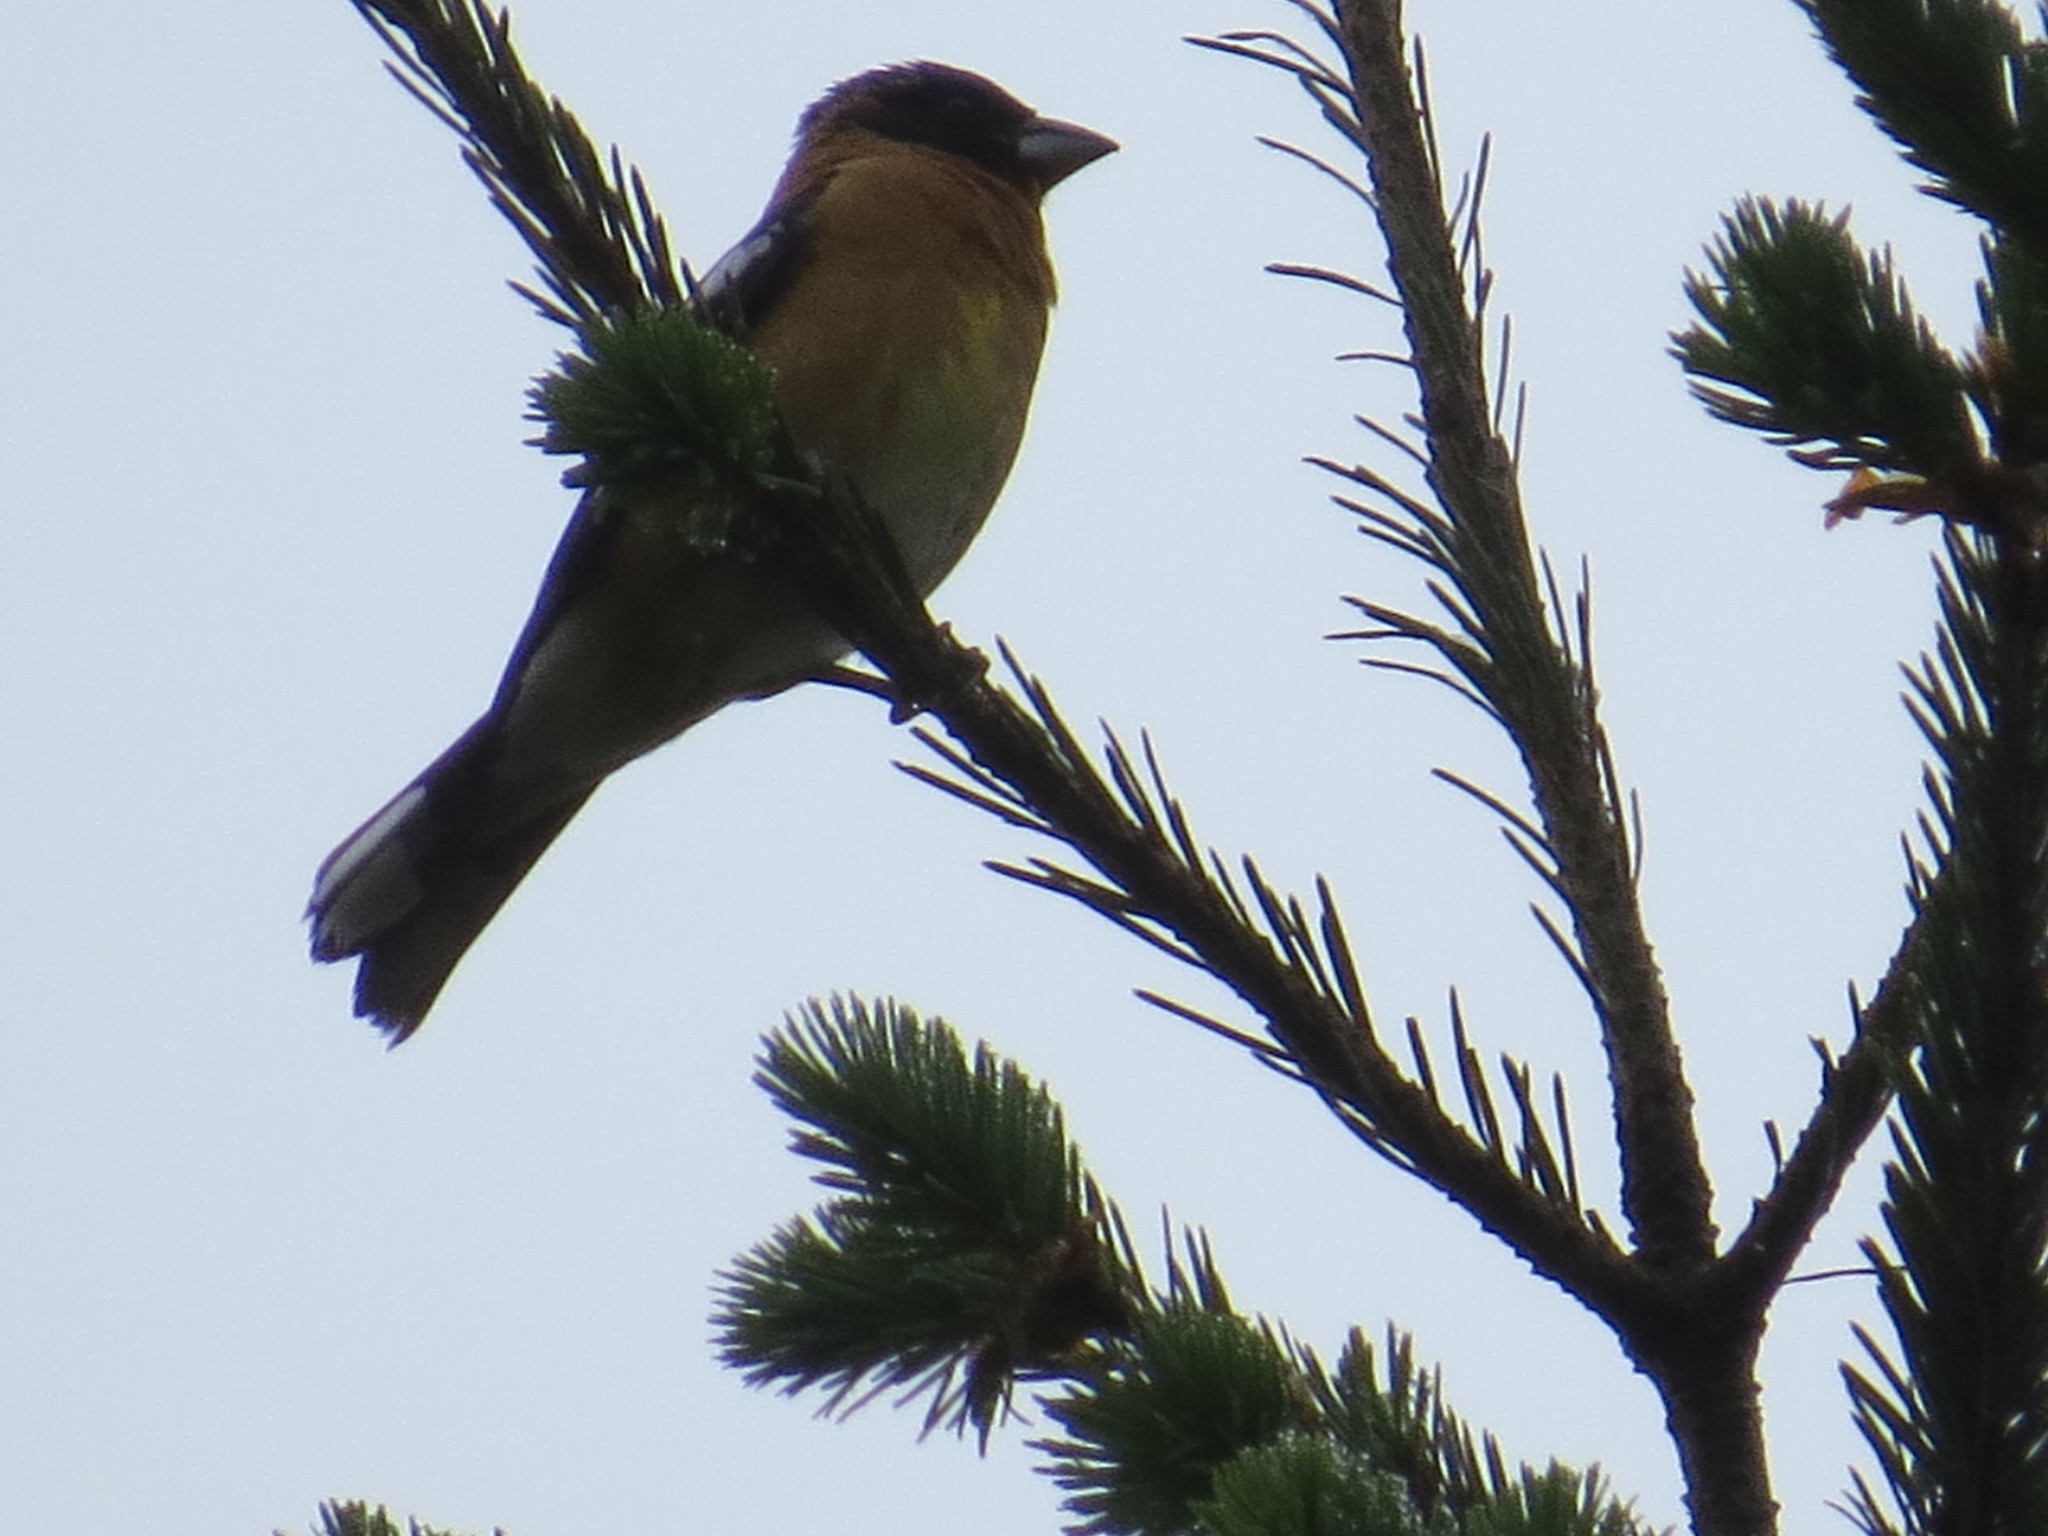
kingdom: Animalia
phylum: Chordata
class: Aves
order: Passeriformes
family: Cardinalidae
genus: Pheucticus
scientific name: Pheucticus melanocephalus
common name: Black-headed grosbeak
